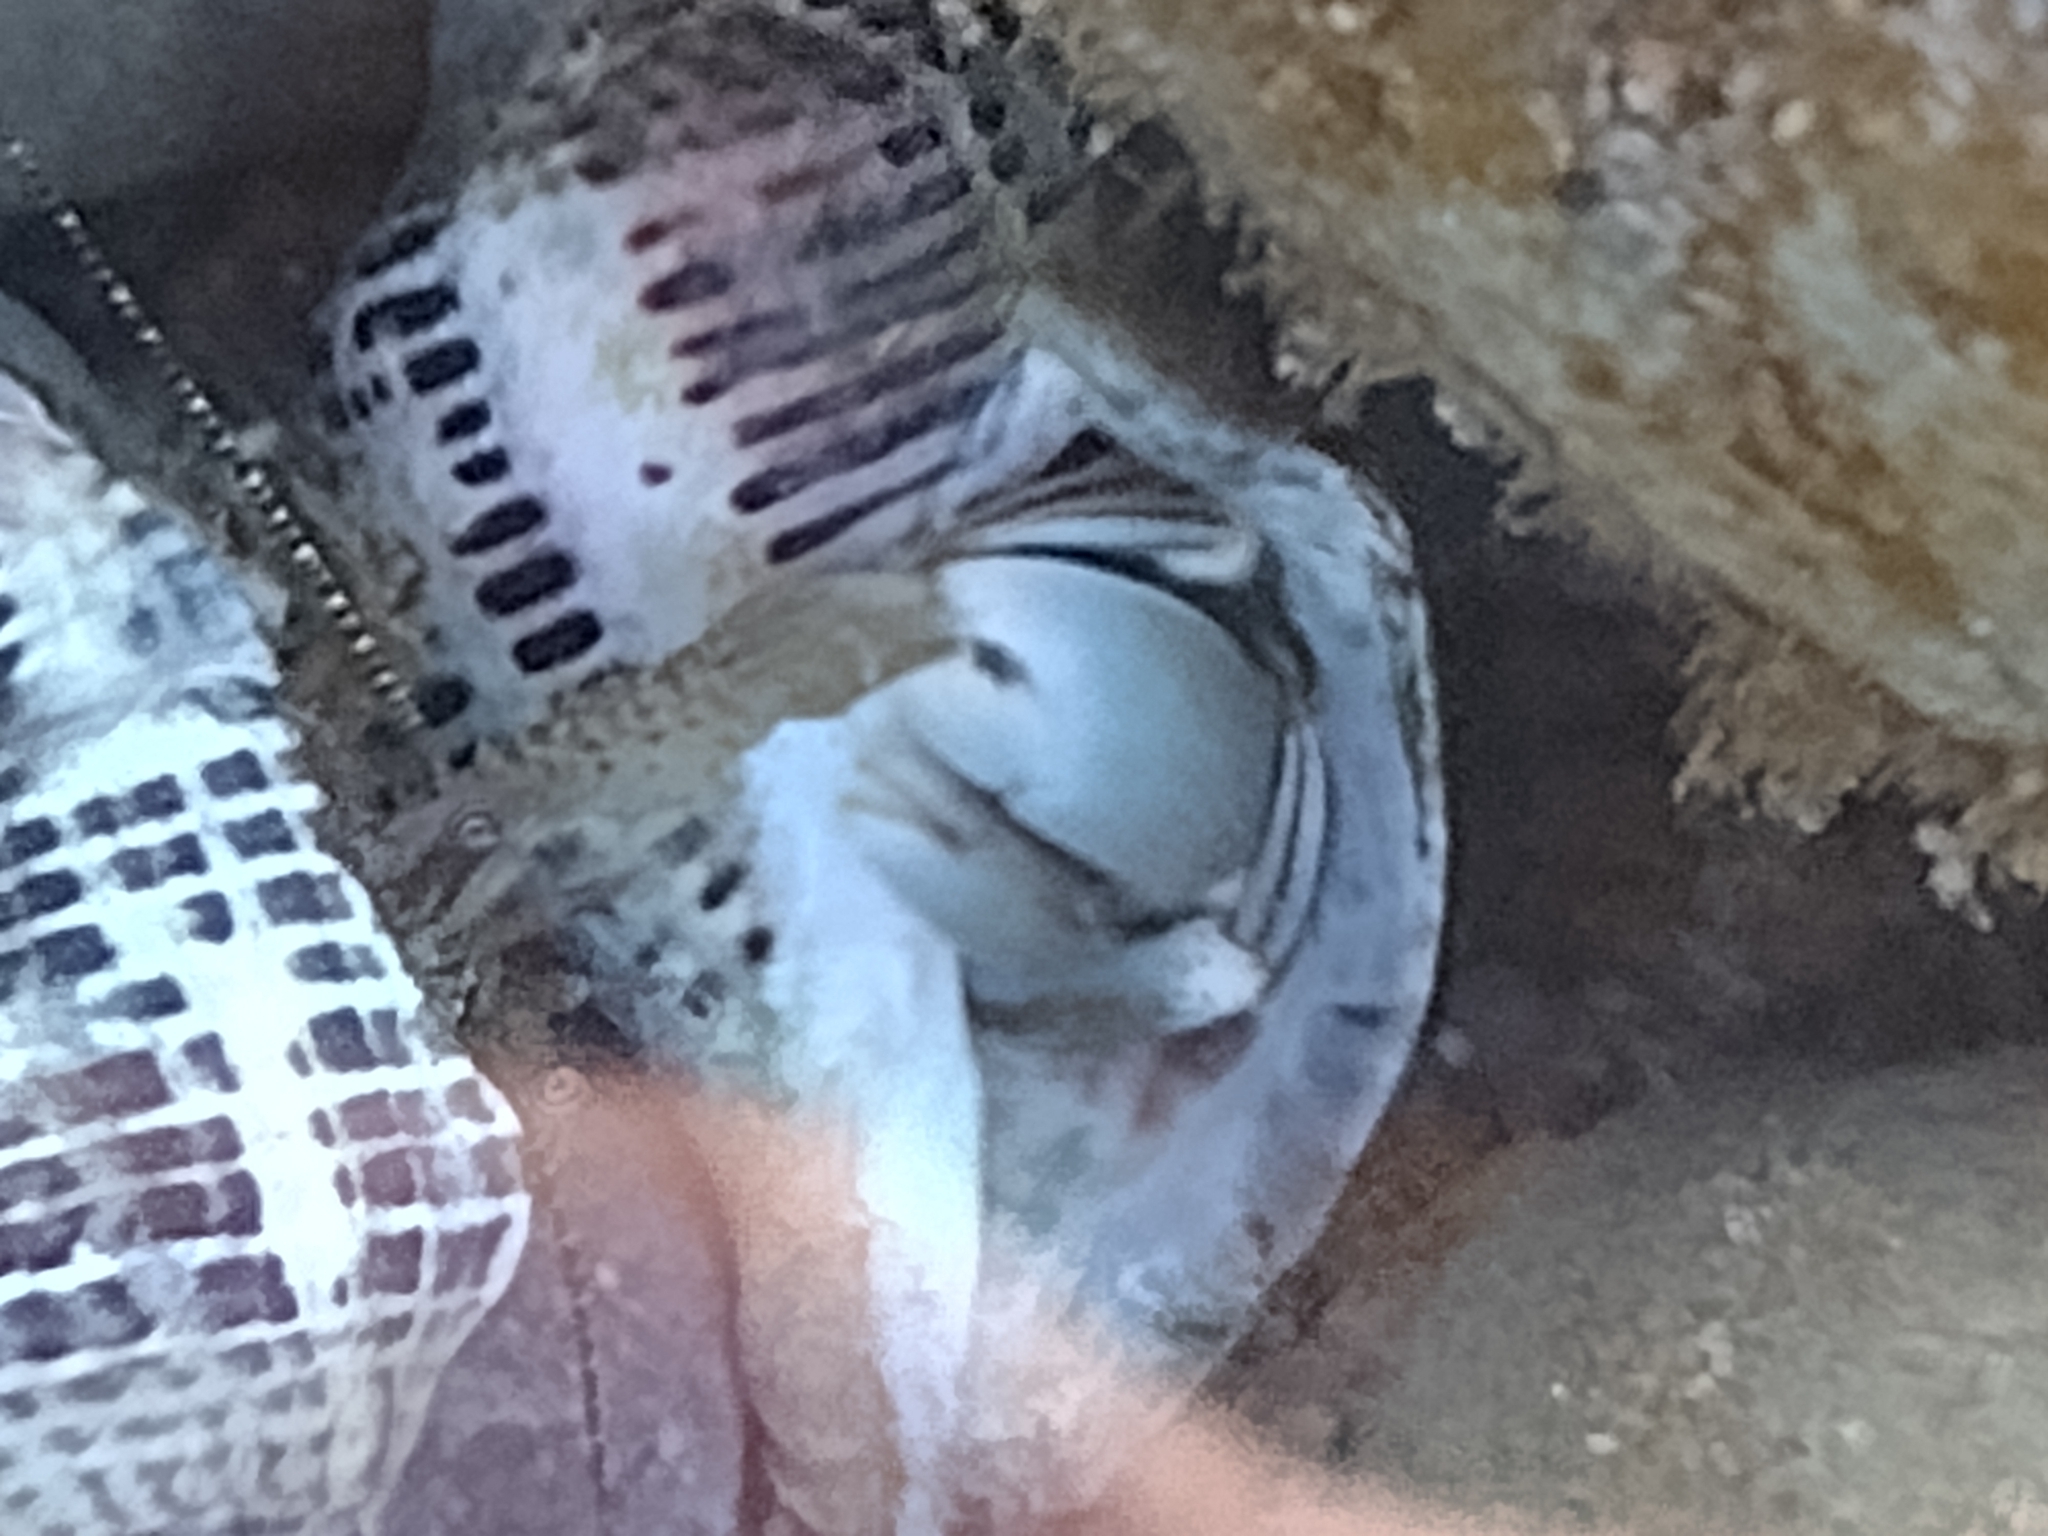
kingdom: Animalia
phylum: Mollusca
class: Gastropoda
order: Neogastropoda
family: Muricidae
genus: Acanthinucella
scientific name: Acanthinucella spirata
